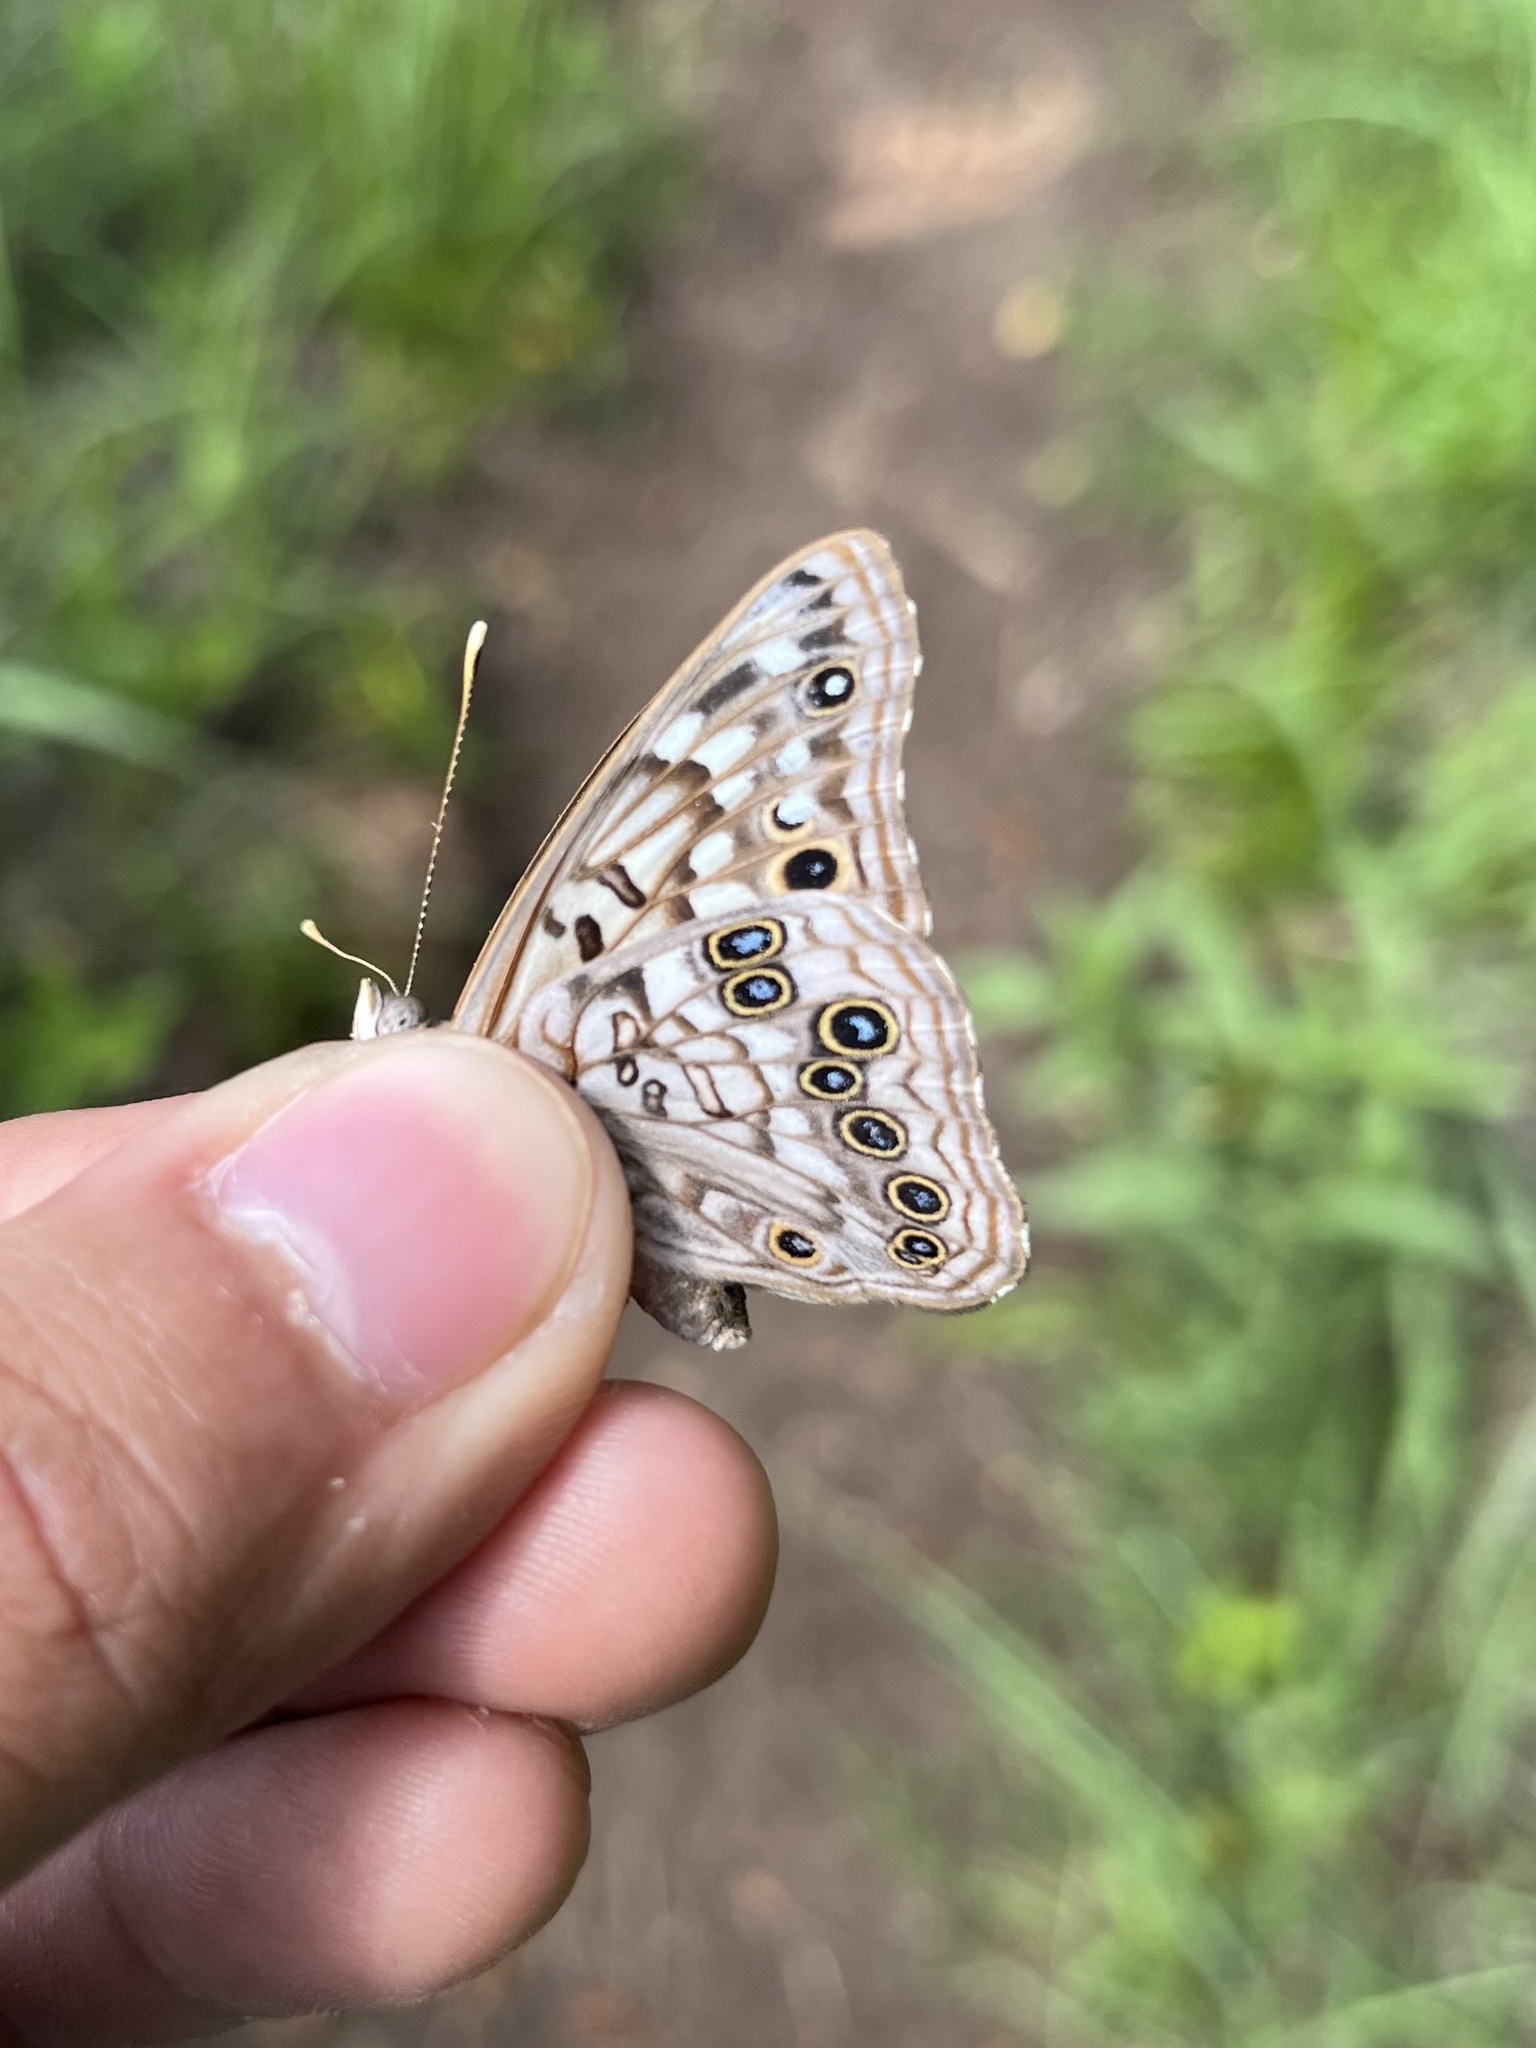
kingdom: Animalia
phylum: Arthropoda
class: Insecta
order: Lepidoptera
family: Nymphalidae
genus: Asterocampa
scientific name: Asterocampa celtis
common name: Hackberry emperor
